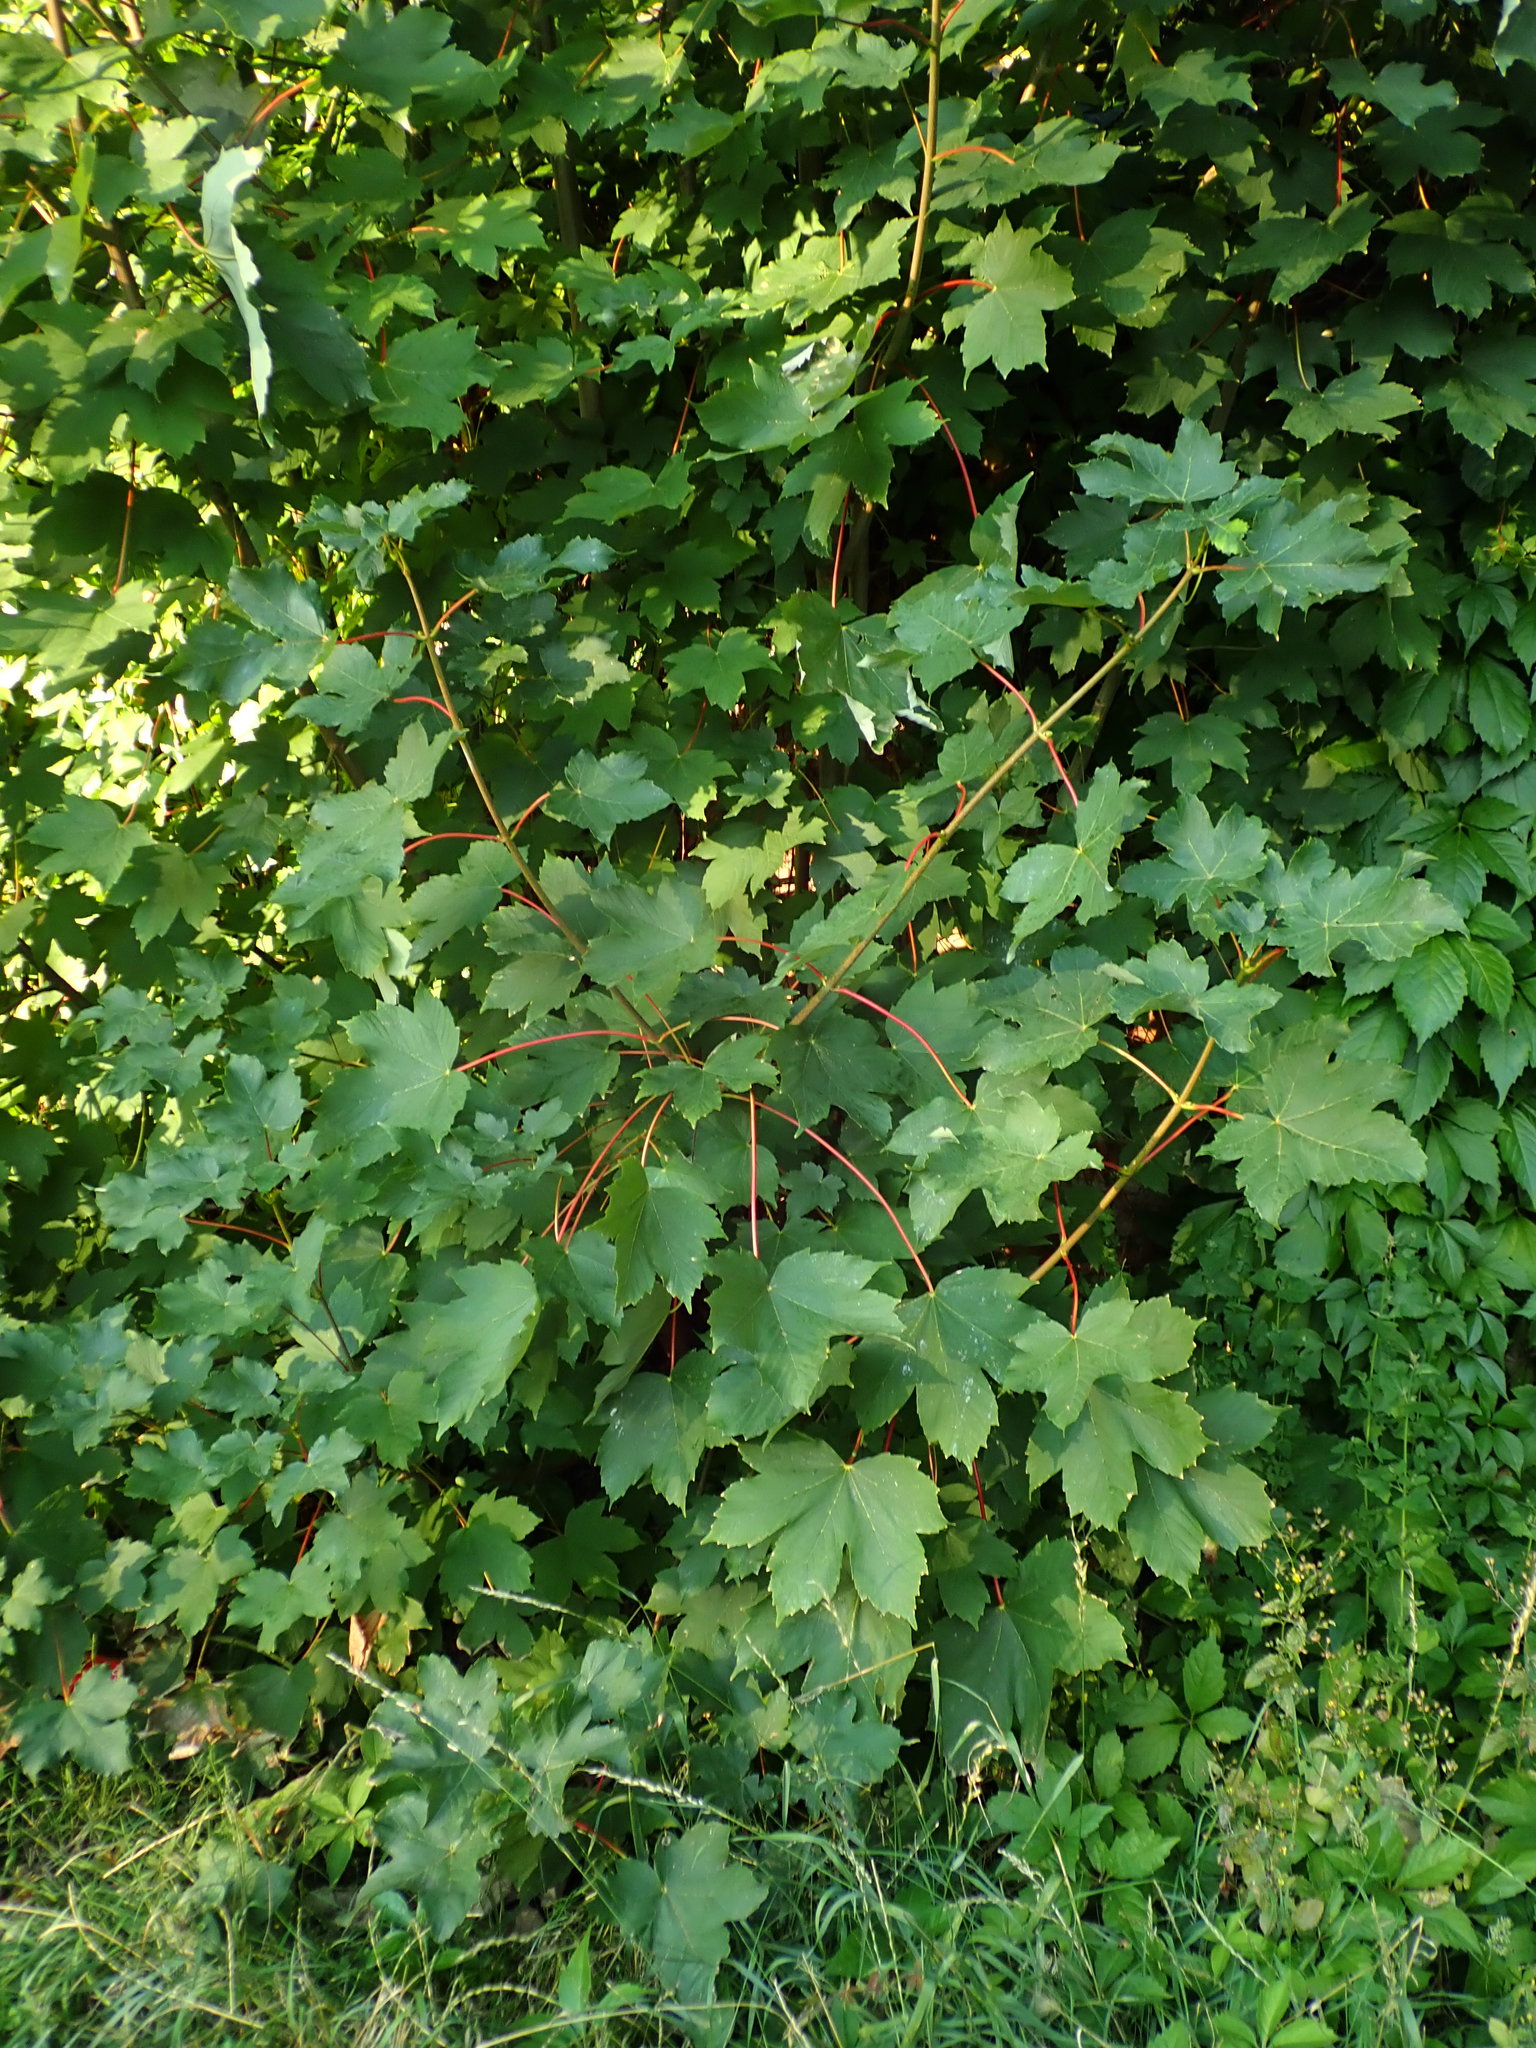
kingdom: Plantae
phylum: Tracheophyta
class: Magnoliopsida
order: Sapindales
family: Sapindaceae
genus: Acer
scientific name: Acer pseudoplatanus
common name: Sycamore
